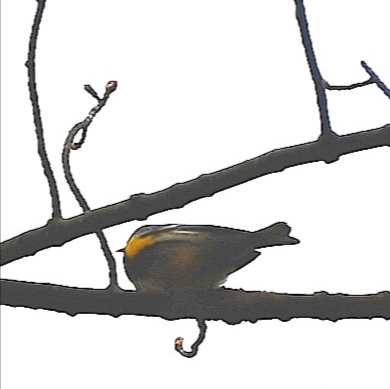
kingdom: Animalia
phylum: Chordata
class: Aves
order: Passeriformes
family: Parulidae
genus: Setophaga
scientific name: Setophaga coronata
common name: Myrtle warbler
